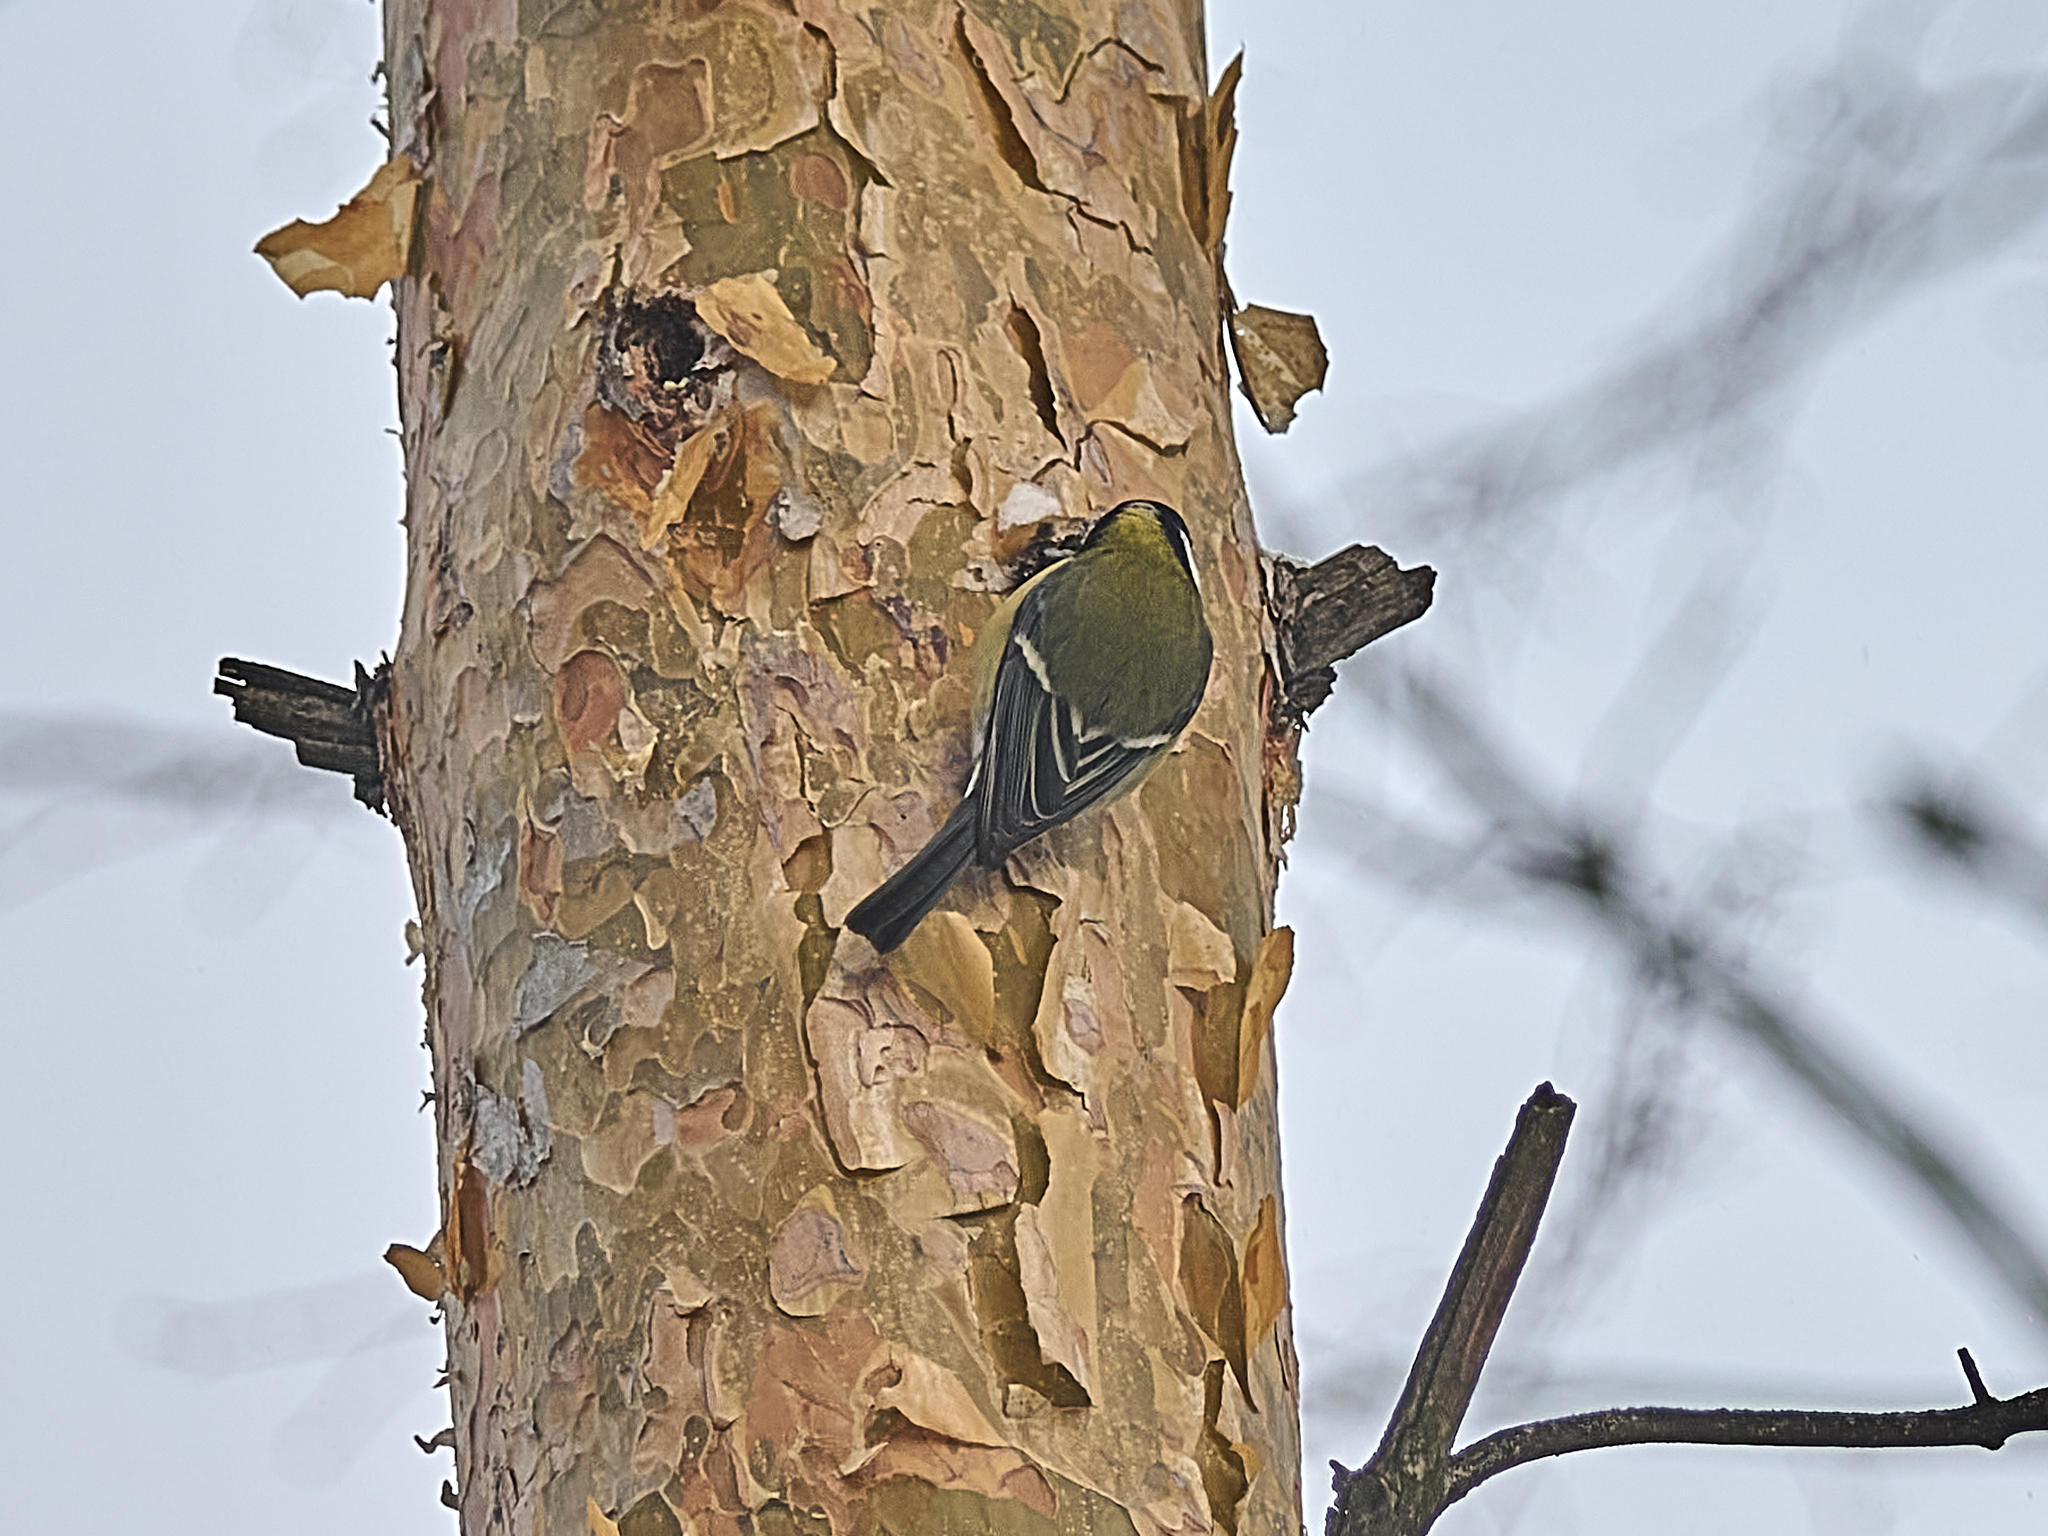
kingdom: Animalia
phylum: Chordata
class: Aves
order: Passeriformes
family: Paridae
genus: Parus
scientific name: Parus major
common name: Great tit
